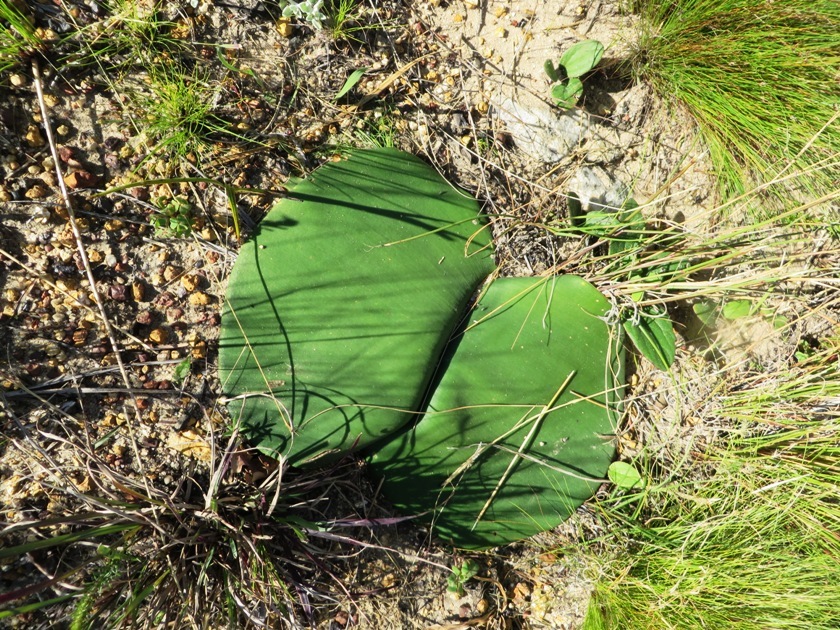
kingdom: Plantae
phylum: Tracheophyta
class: Liliopsida
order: Asparagales
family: Amaryllidaceae
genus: Haemanthus
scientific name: Haemanthus sanguineus
